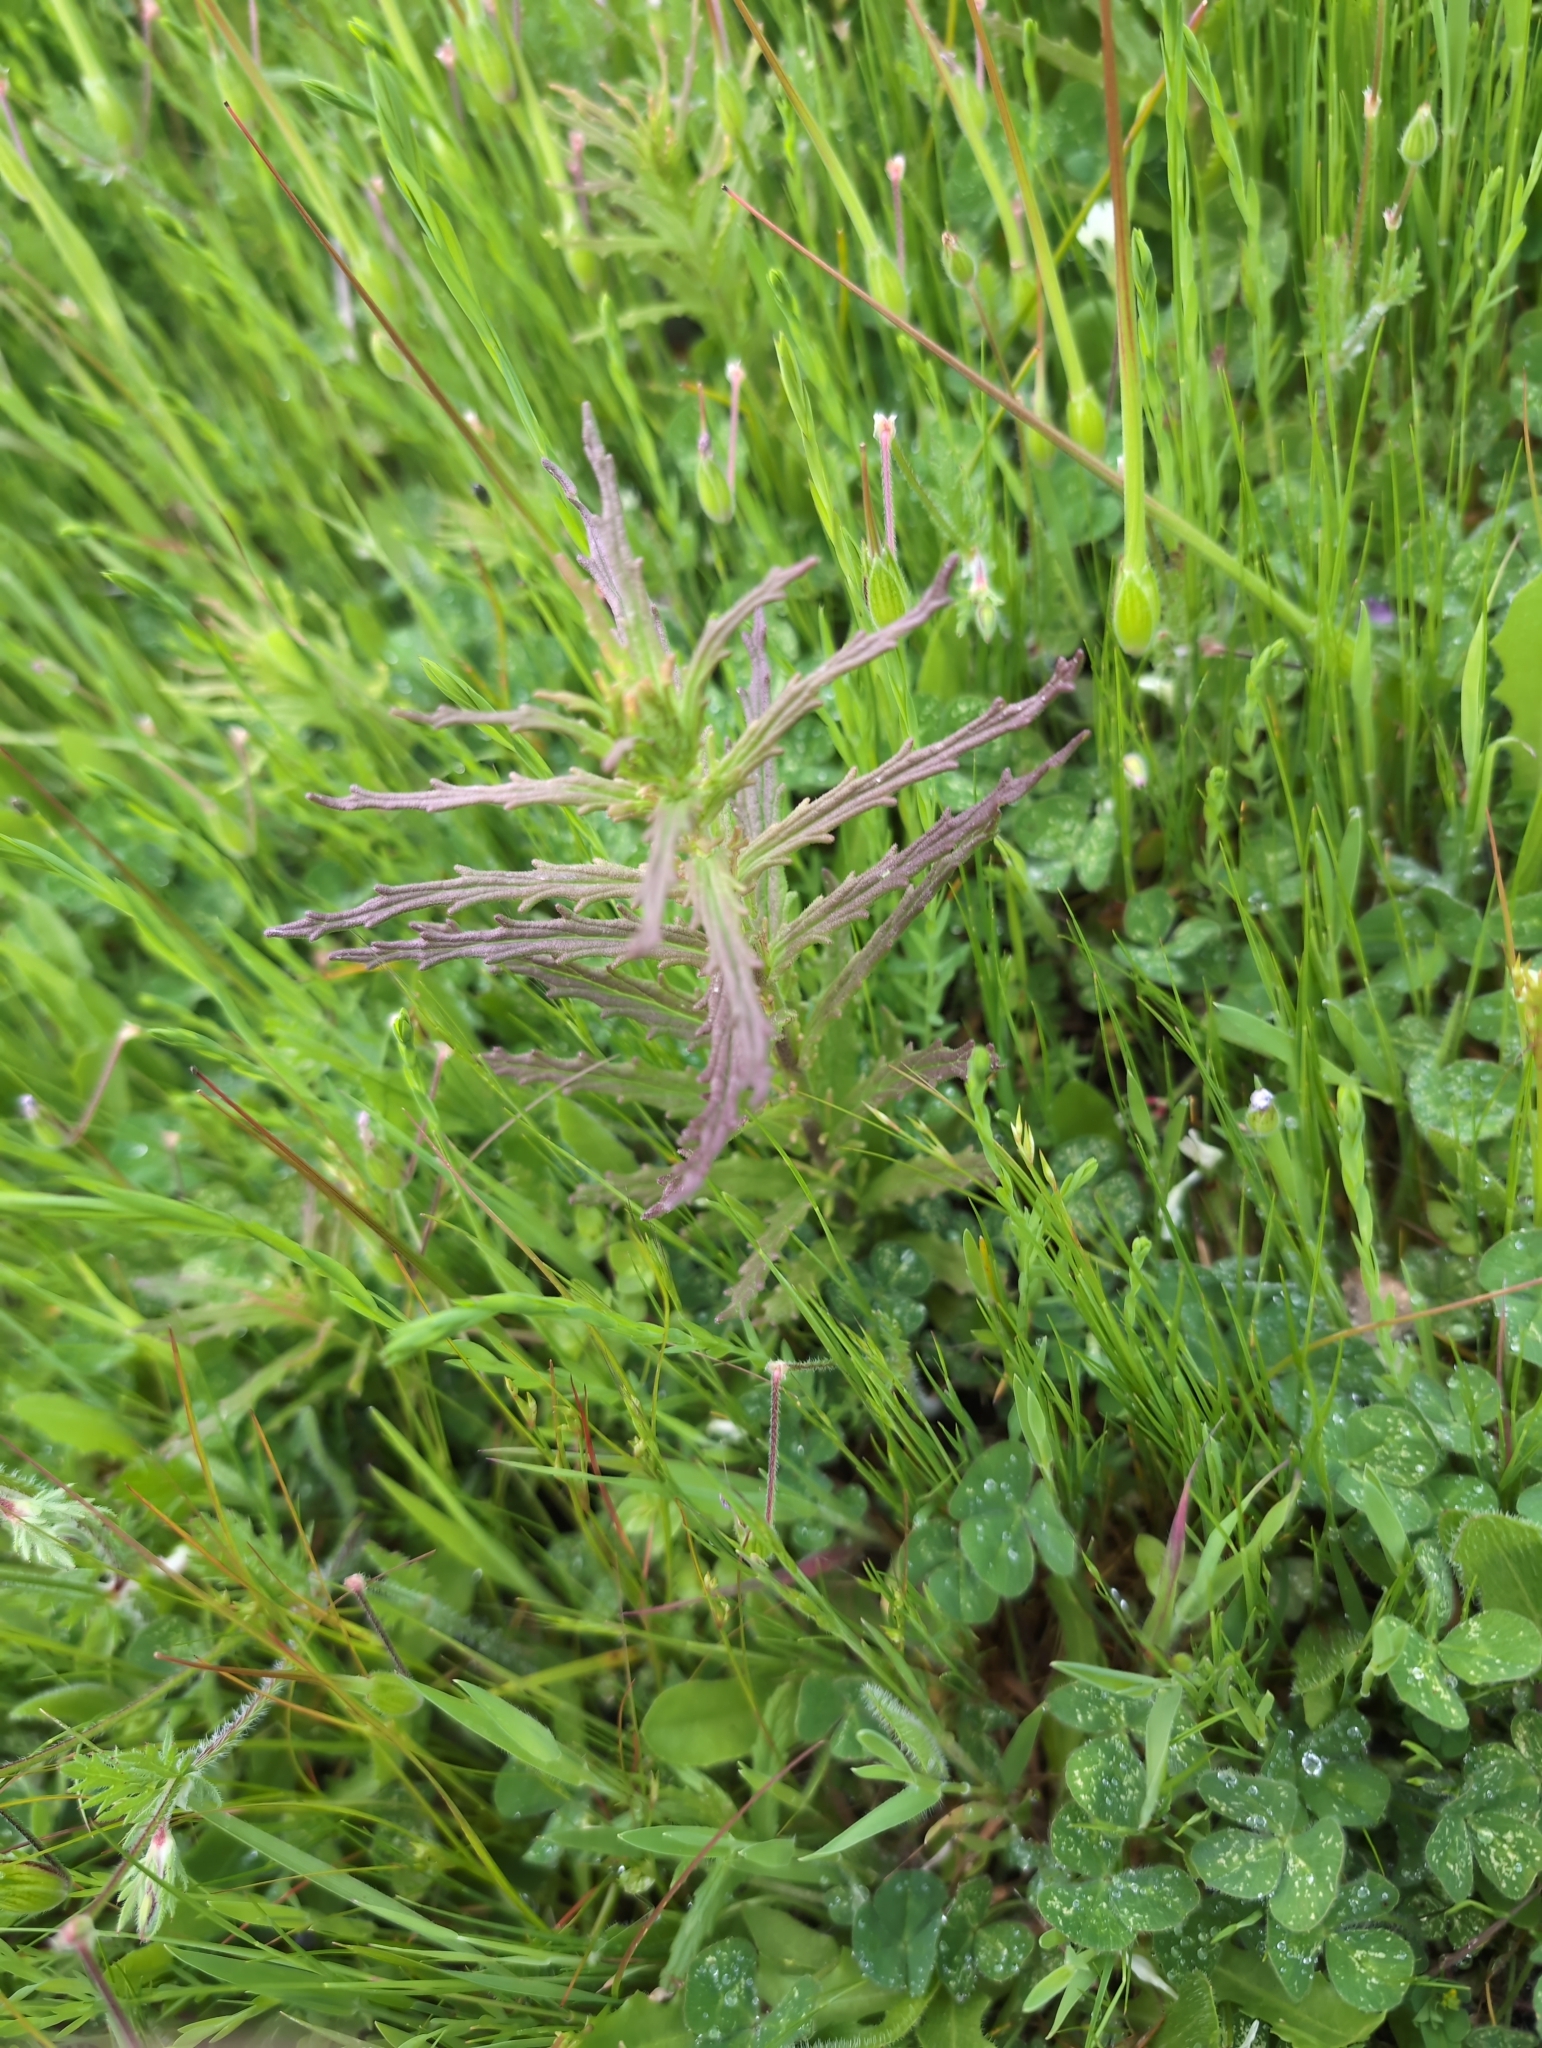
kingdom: Plantae
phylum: Tracheophyta
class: Magnoliopsida
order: Lamiales
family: Orobanchaceae
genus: Bellardia
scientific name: Bellardia trixago
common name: Mediterranean lineseed
